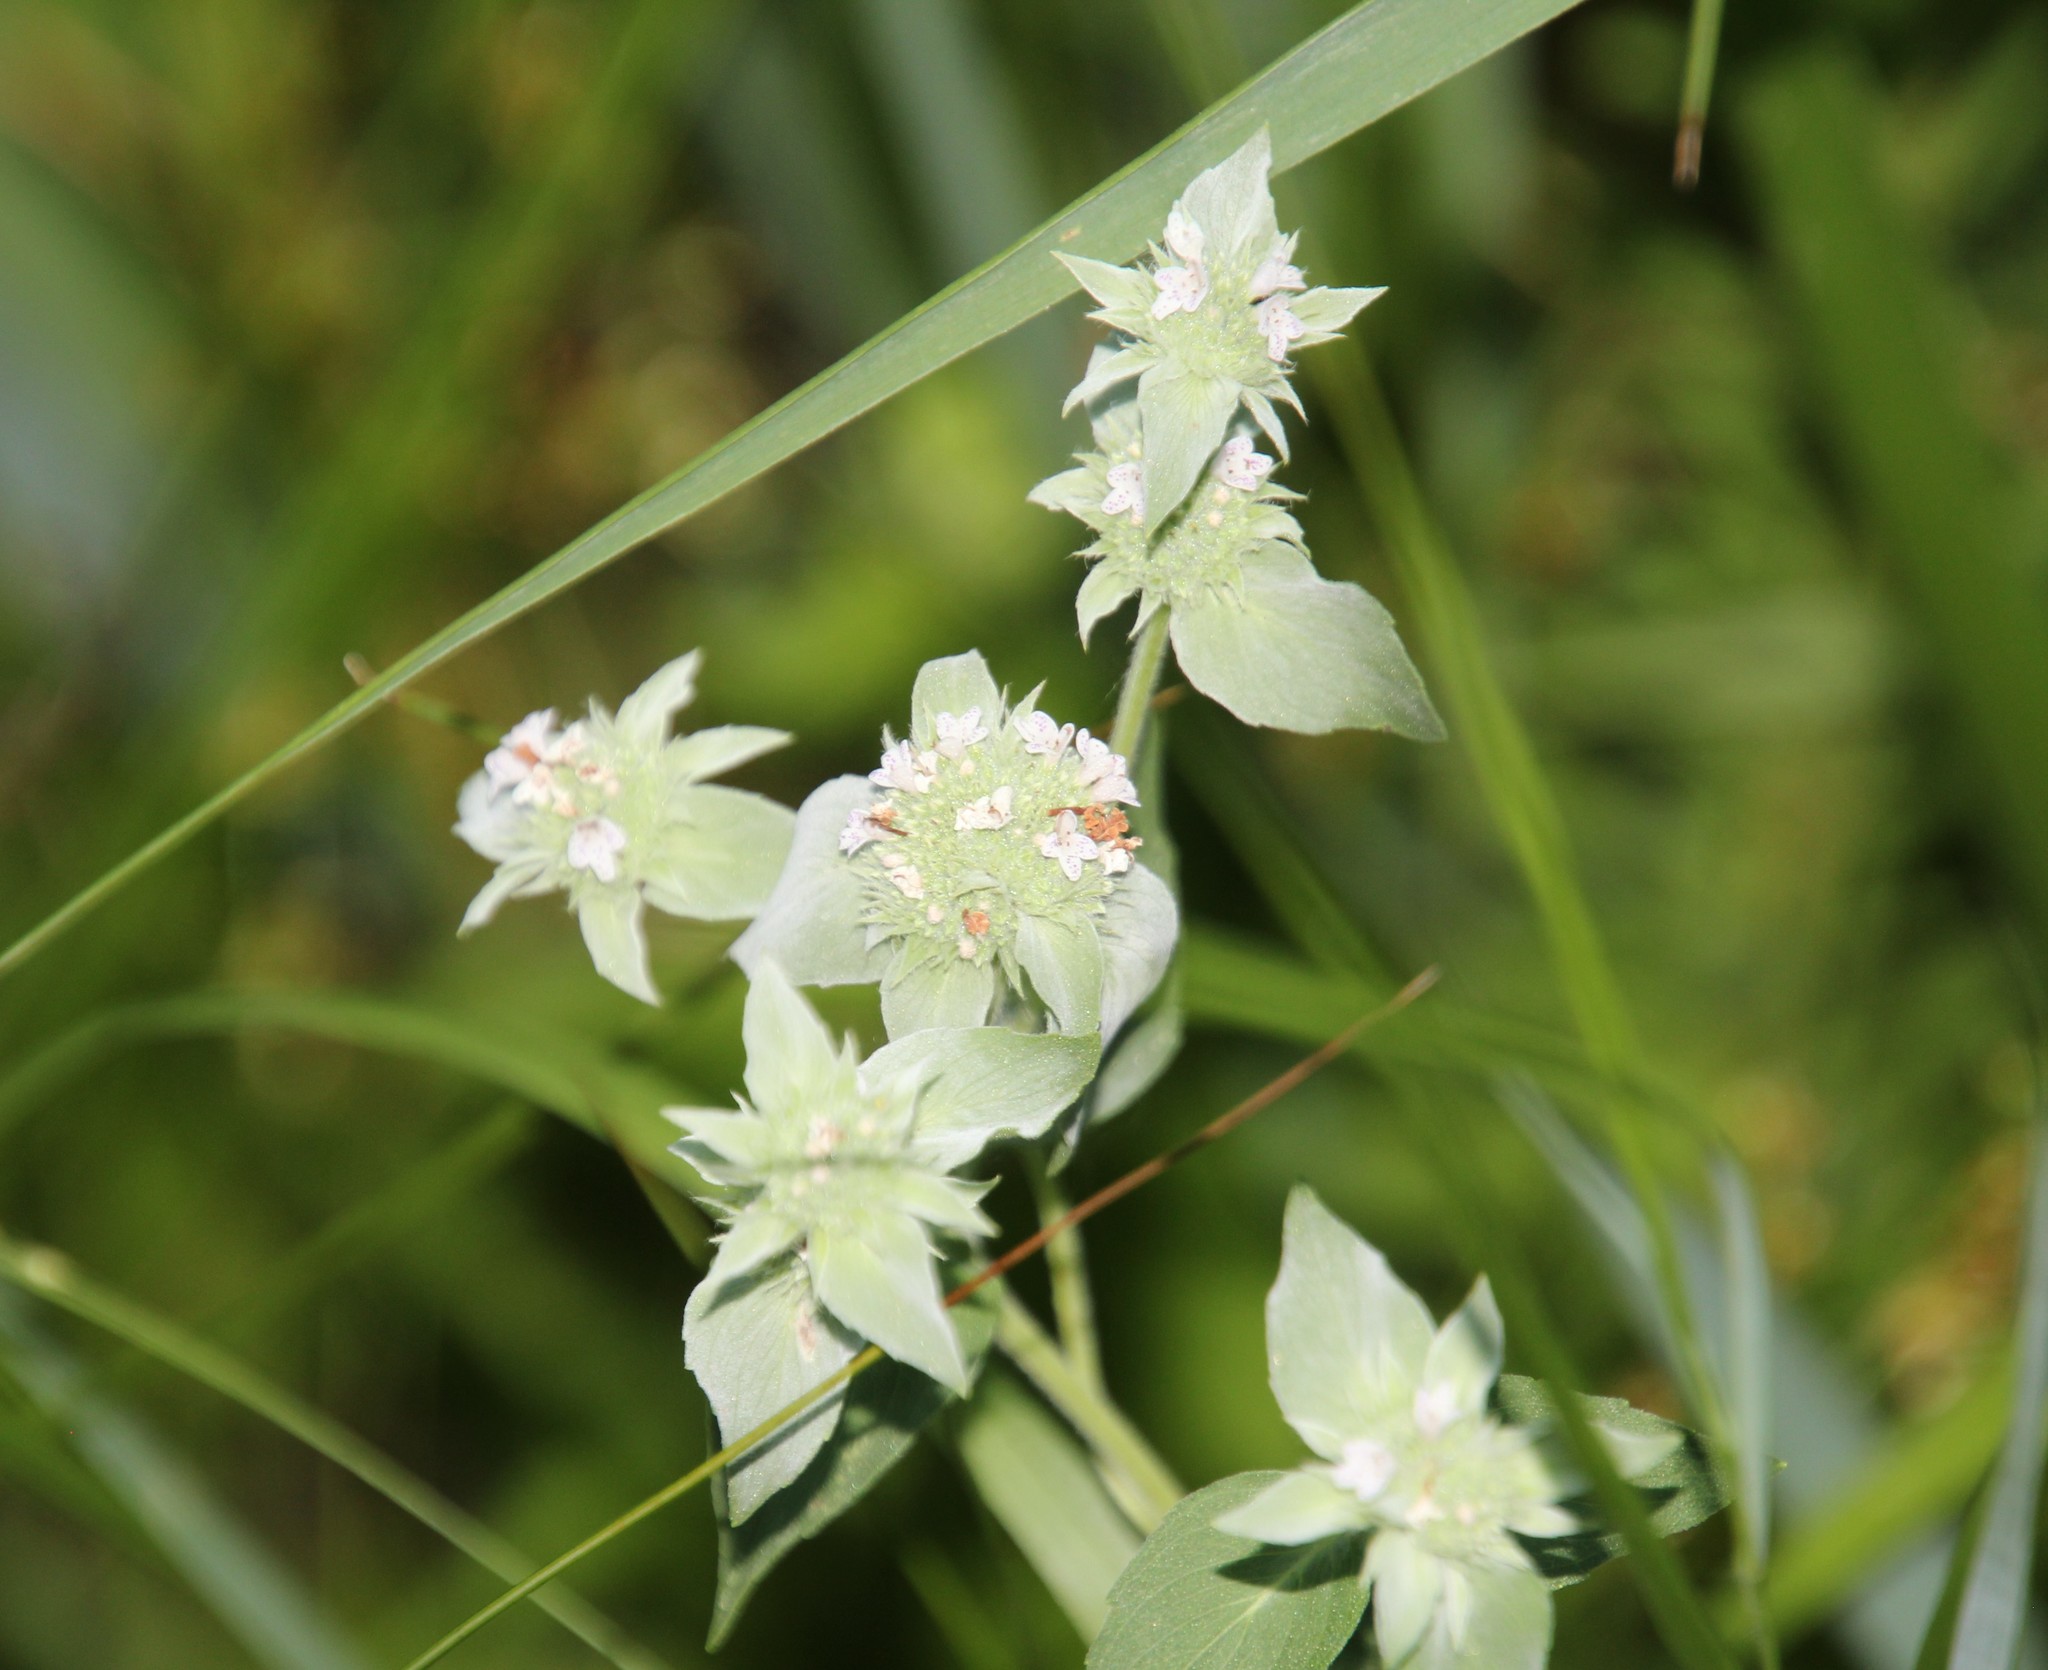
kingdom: Plantae
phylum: Tracheophyta
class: Magnoliopsida
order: Lamiales
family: Lamiaceae
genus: Pycnanthemum
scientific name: Pycnanthemum muticum
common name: Blunt mountain-mint
